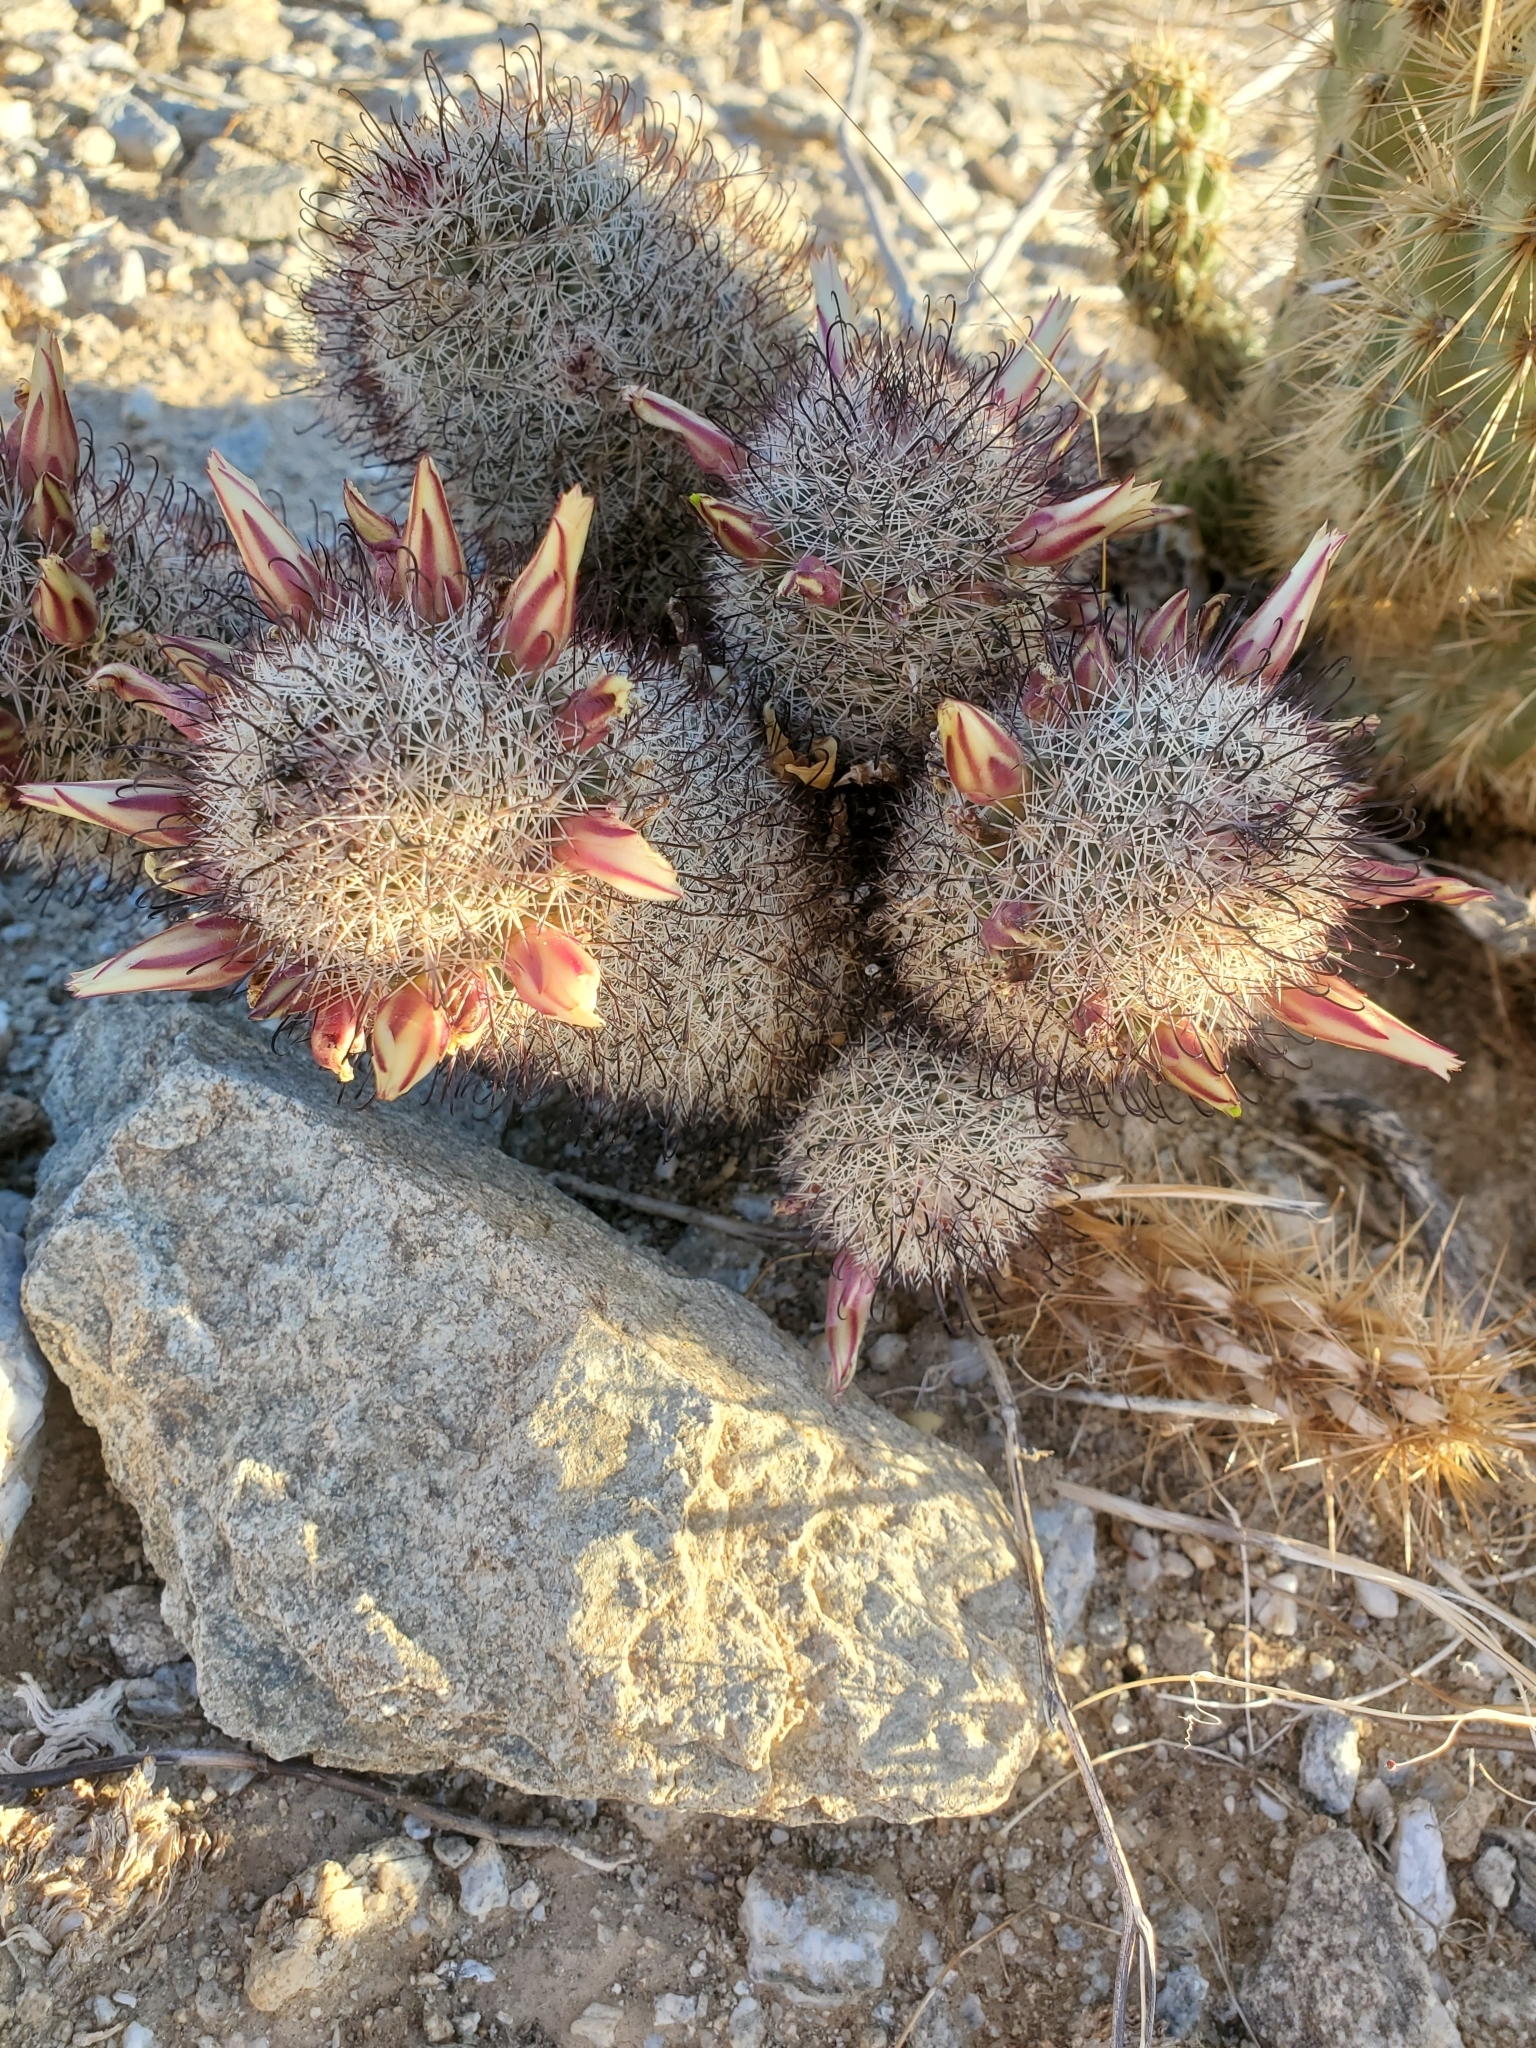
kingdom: Plantae
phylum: Tracheophyta
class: Magnoliopsida
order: Caryophyllales
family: Cactaceae
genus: Cochemiea
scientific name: Cochemiea dioica
